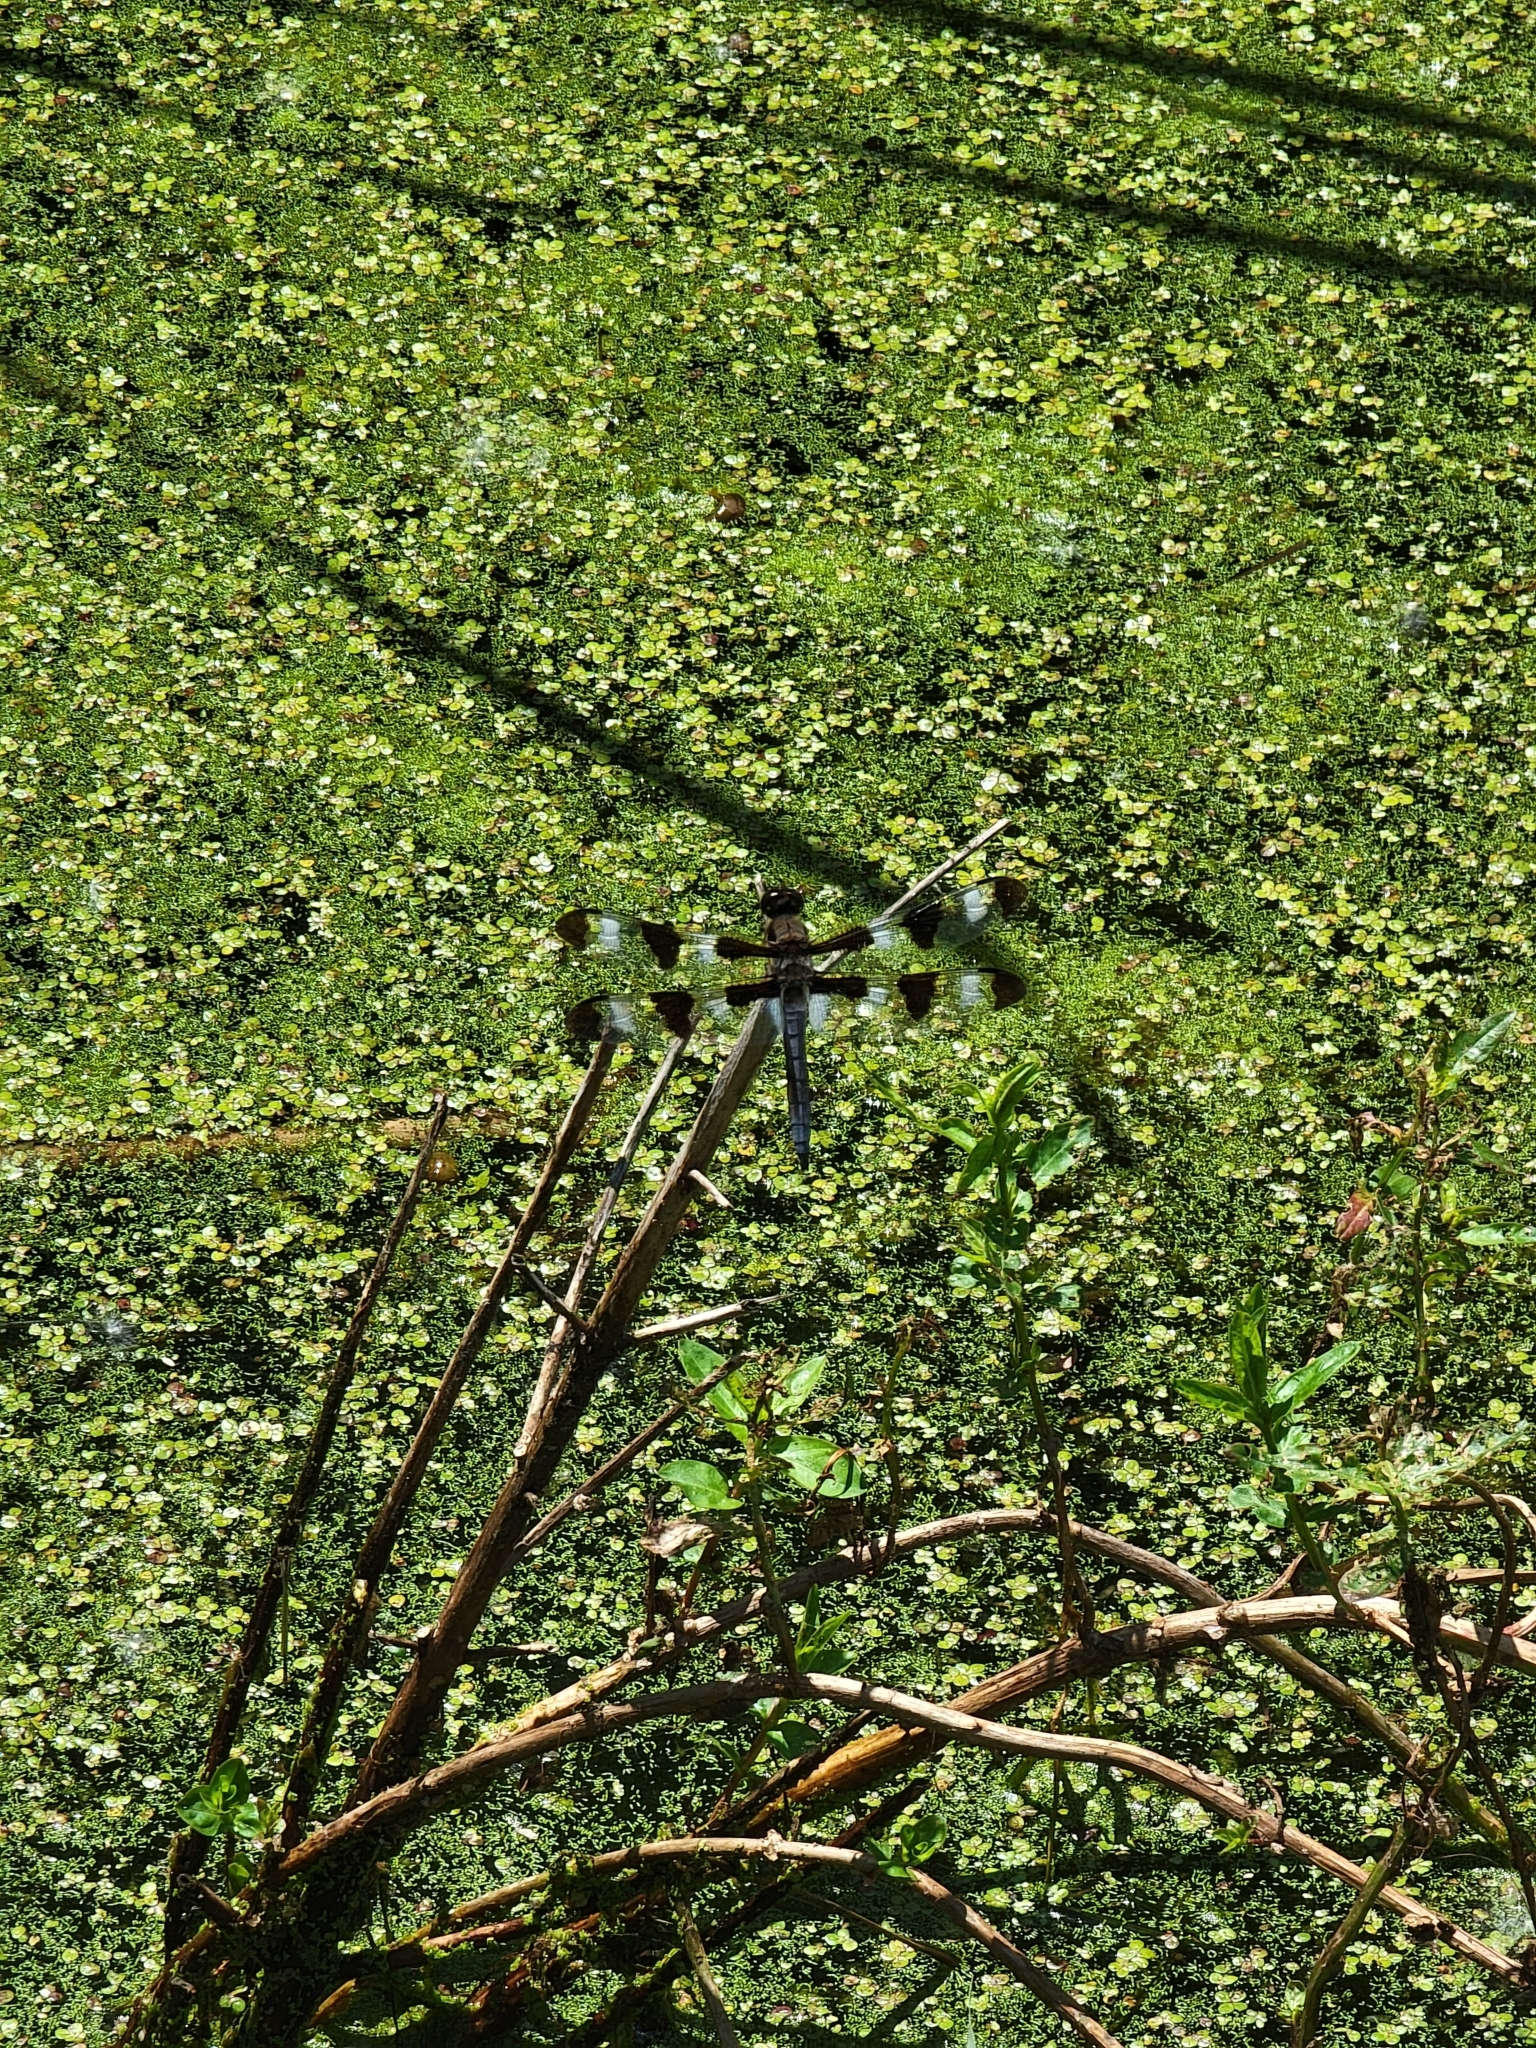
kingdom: Animalia
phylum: Arthropoda
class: Insecta
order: Odonata
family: Libellulidae
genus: Libellula
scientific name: Libellula pulchella
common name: Twelve-spotted skimmer
